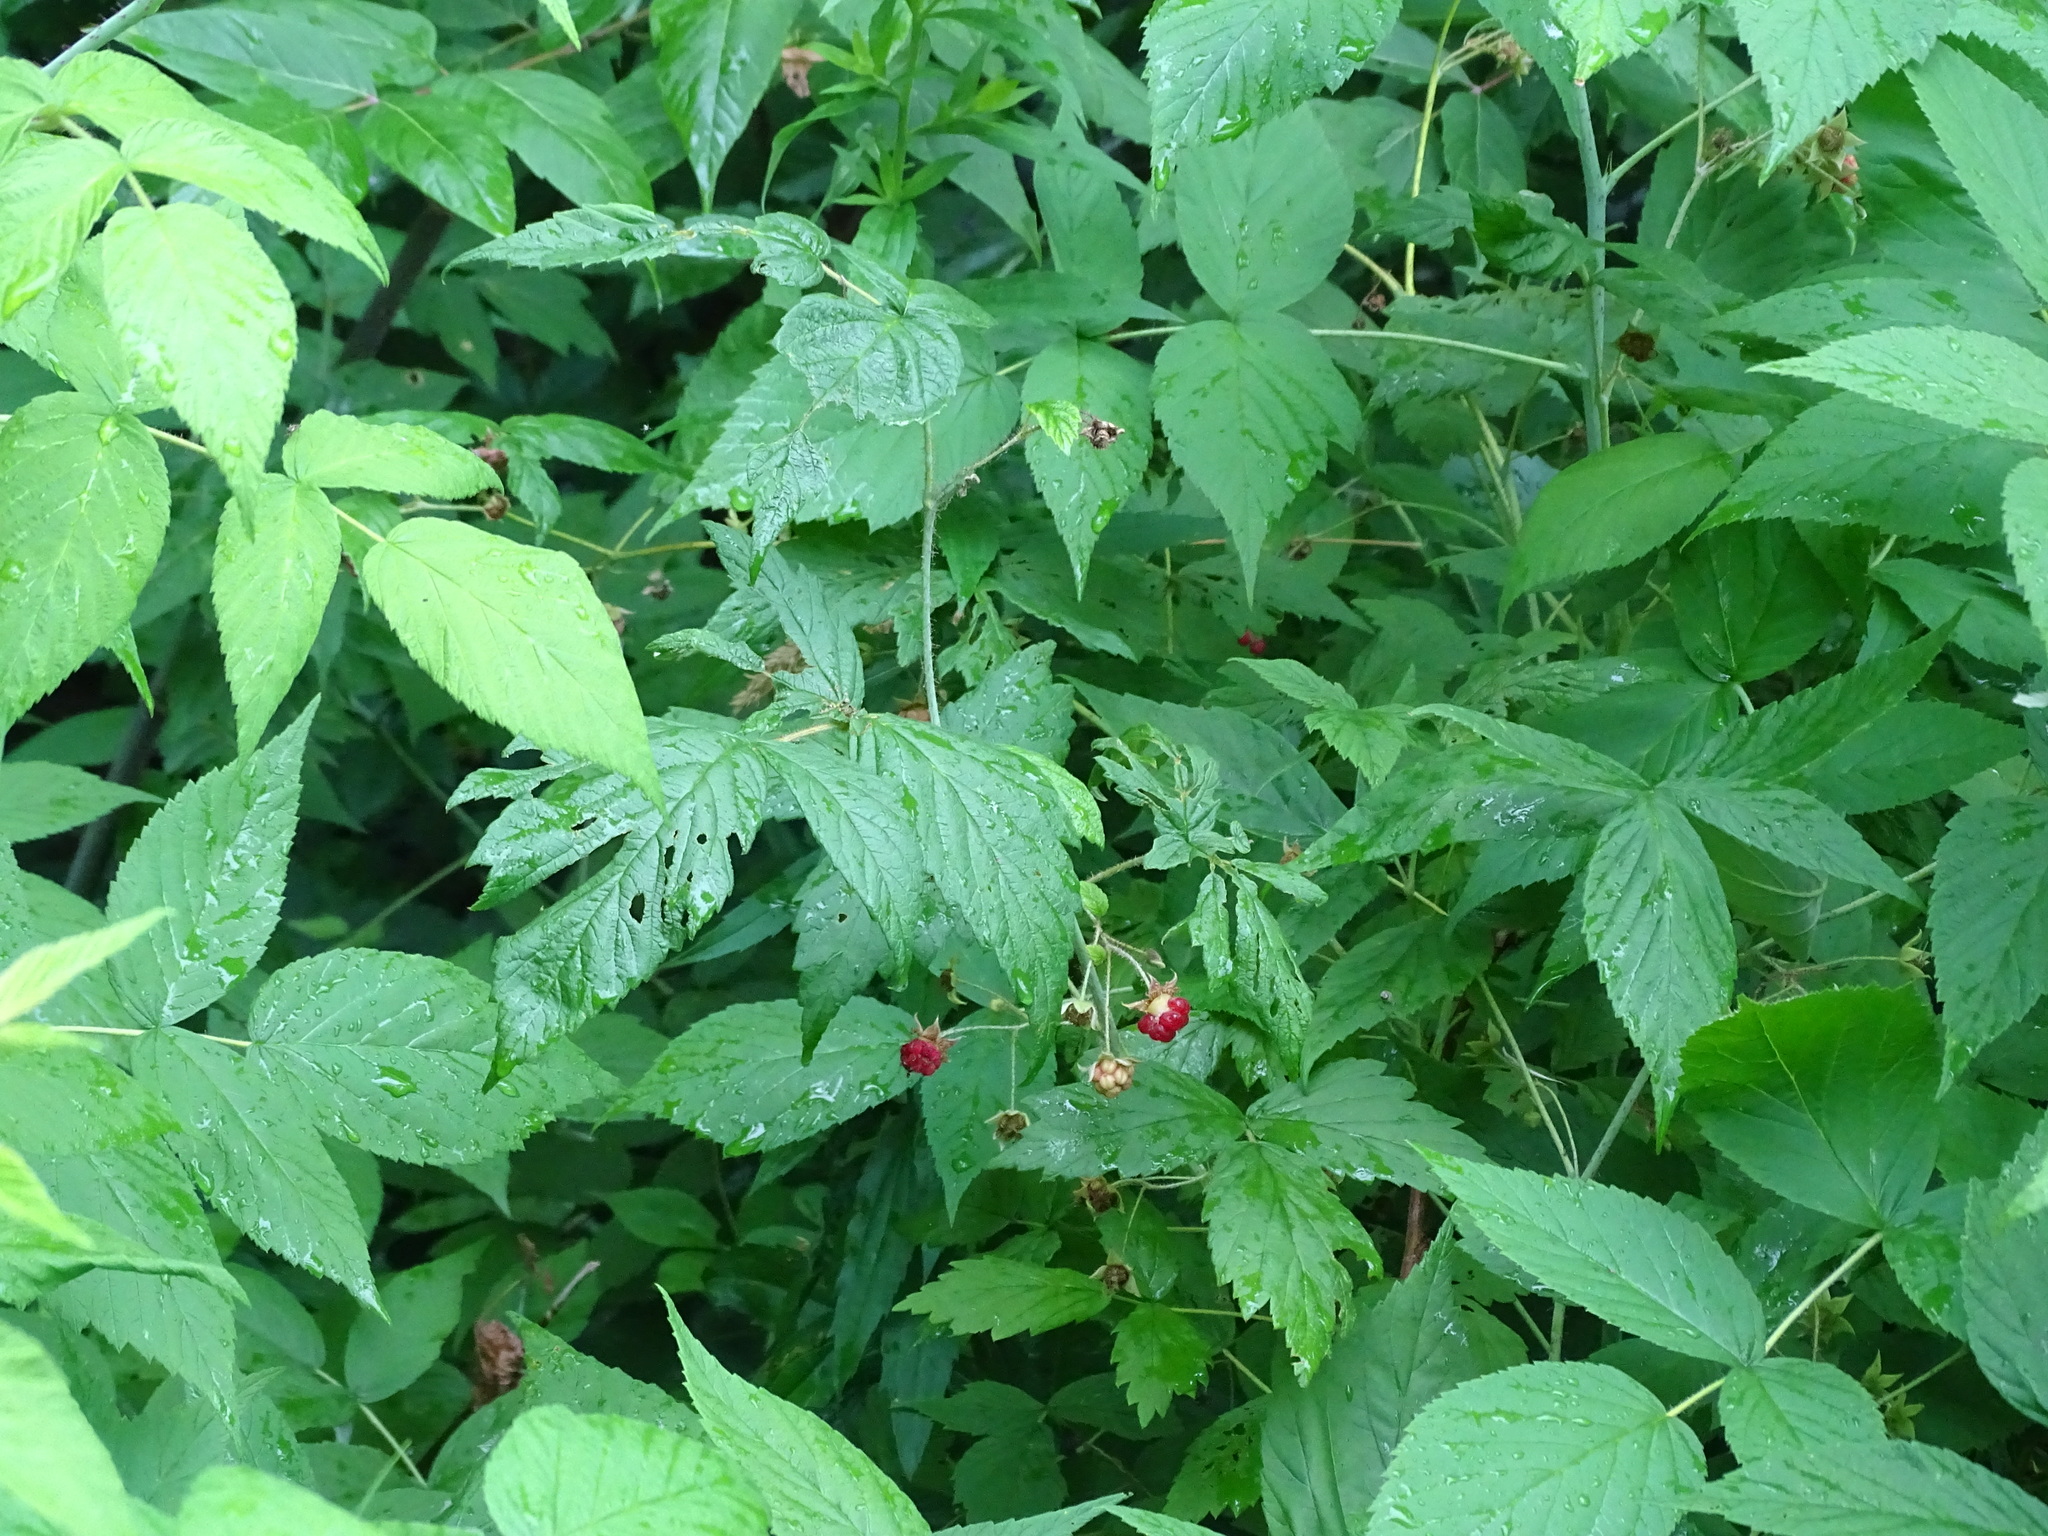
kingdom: Plantae
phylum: Tracheophyta
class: Magnoliopsida
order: Rosales
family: Rosaceae
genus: Rubus
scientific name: Rubus idaeus
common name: Raspberry
